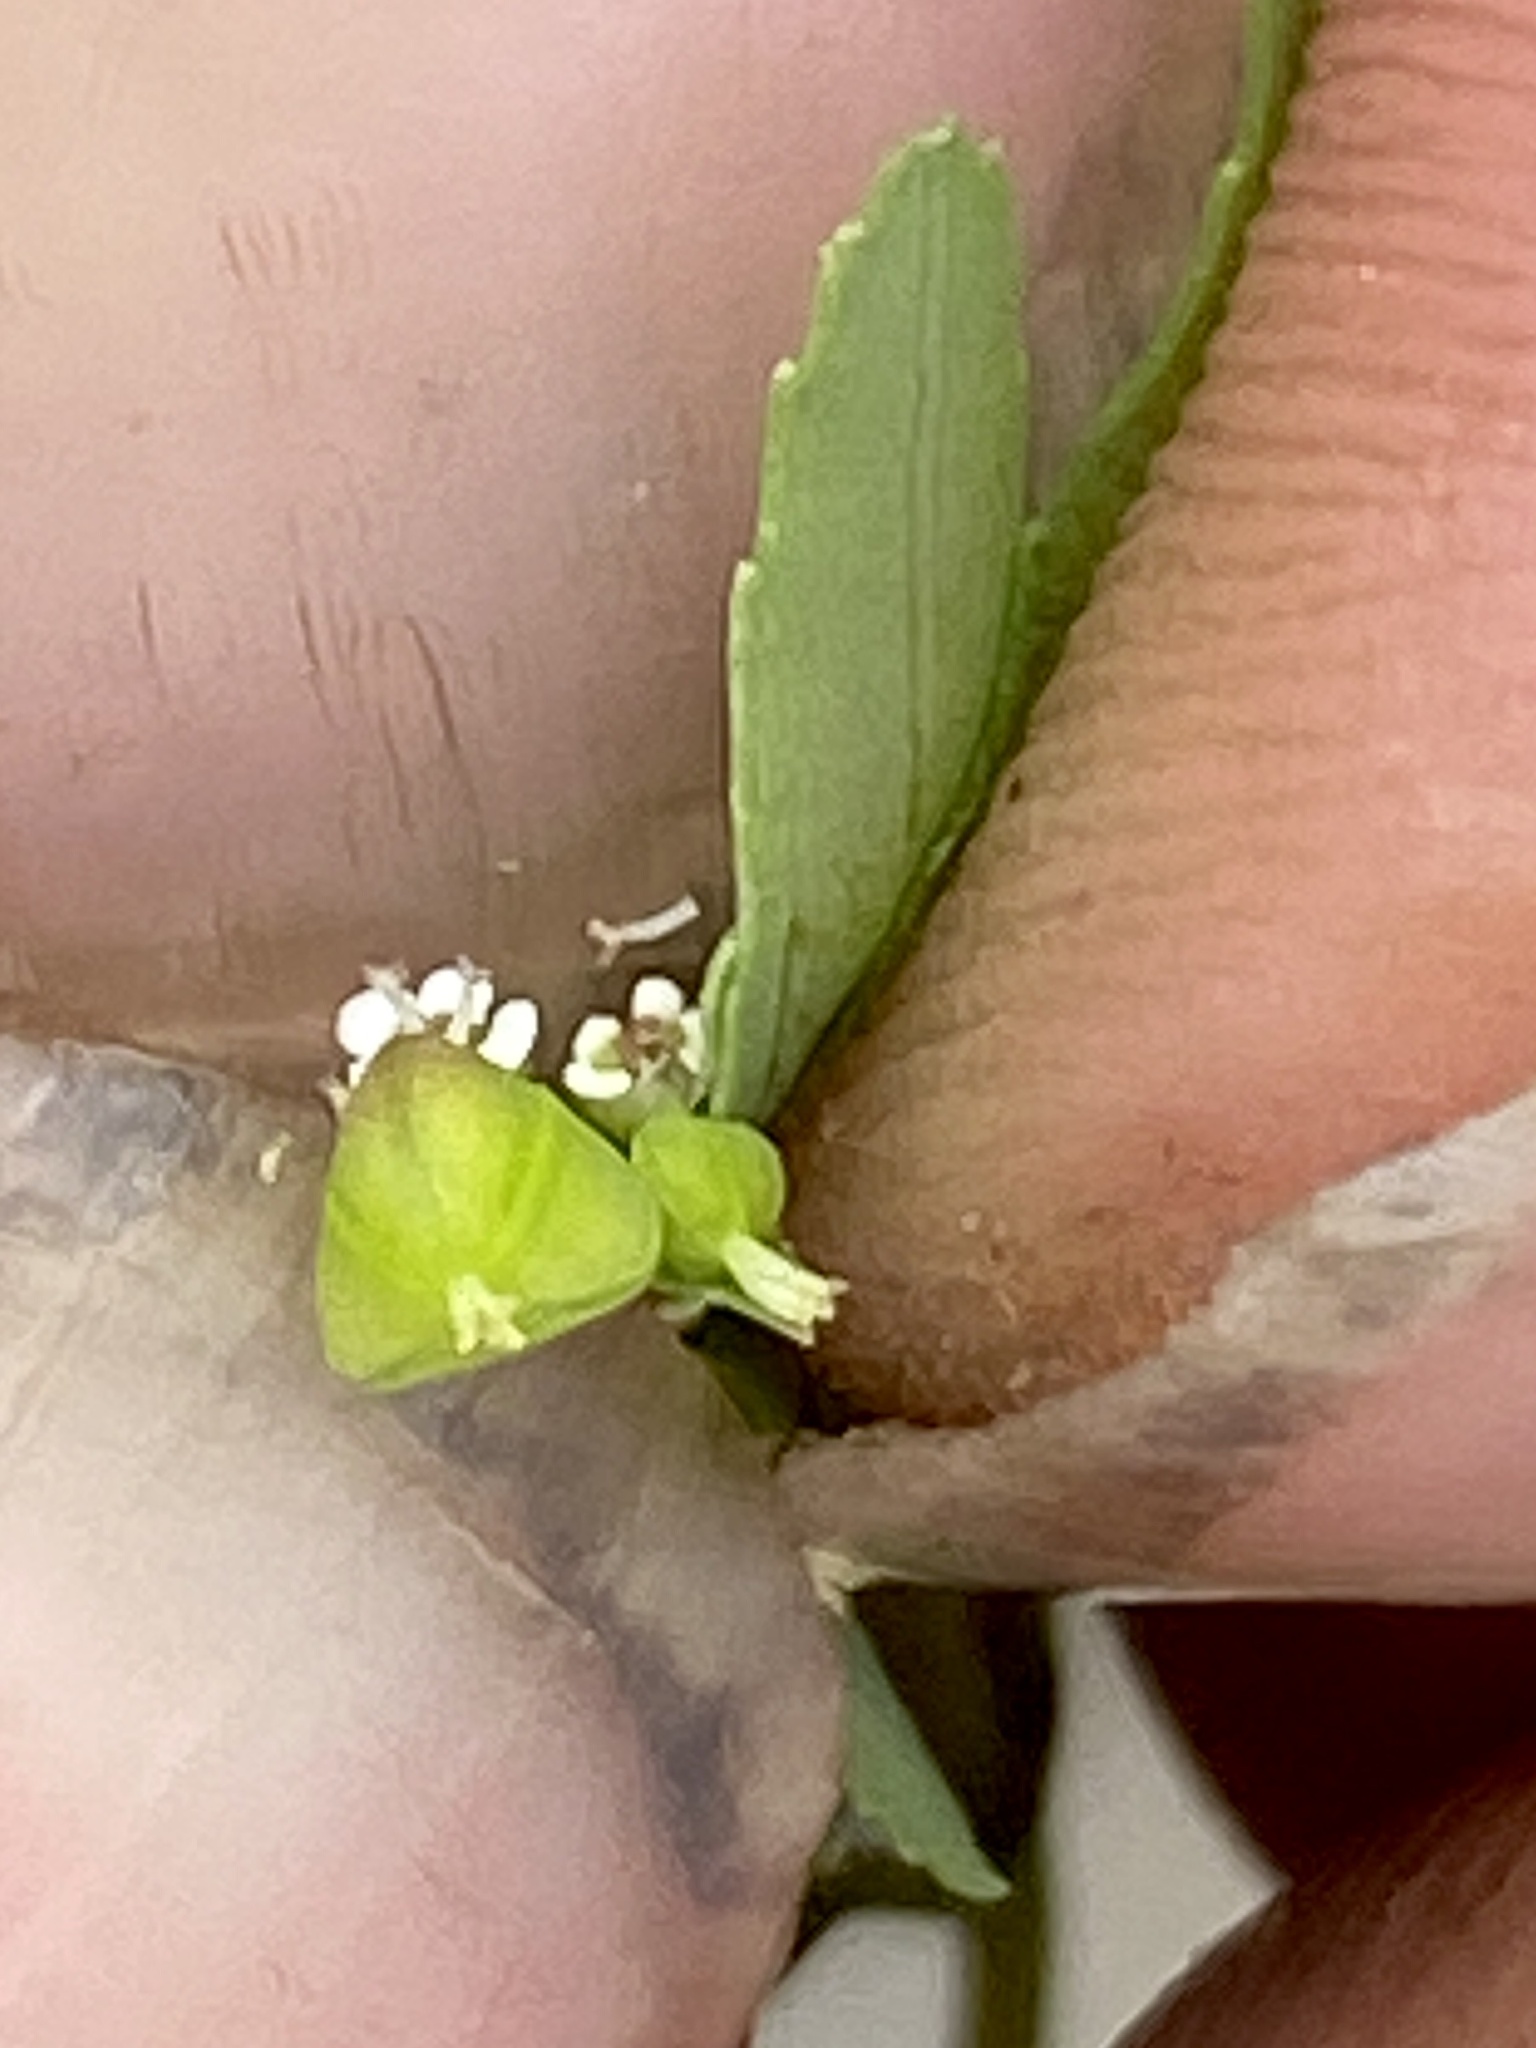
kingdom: Plantae
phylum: Tracheophyta
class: Magnoliopsida
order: Malpighiales
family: Euphorbiaceae
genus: Euphorbia
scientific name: Euphorbia nutans
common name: Eyebane
